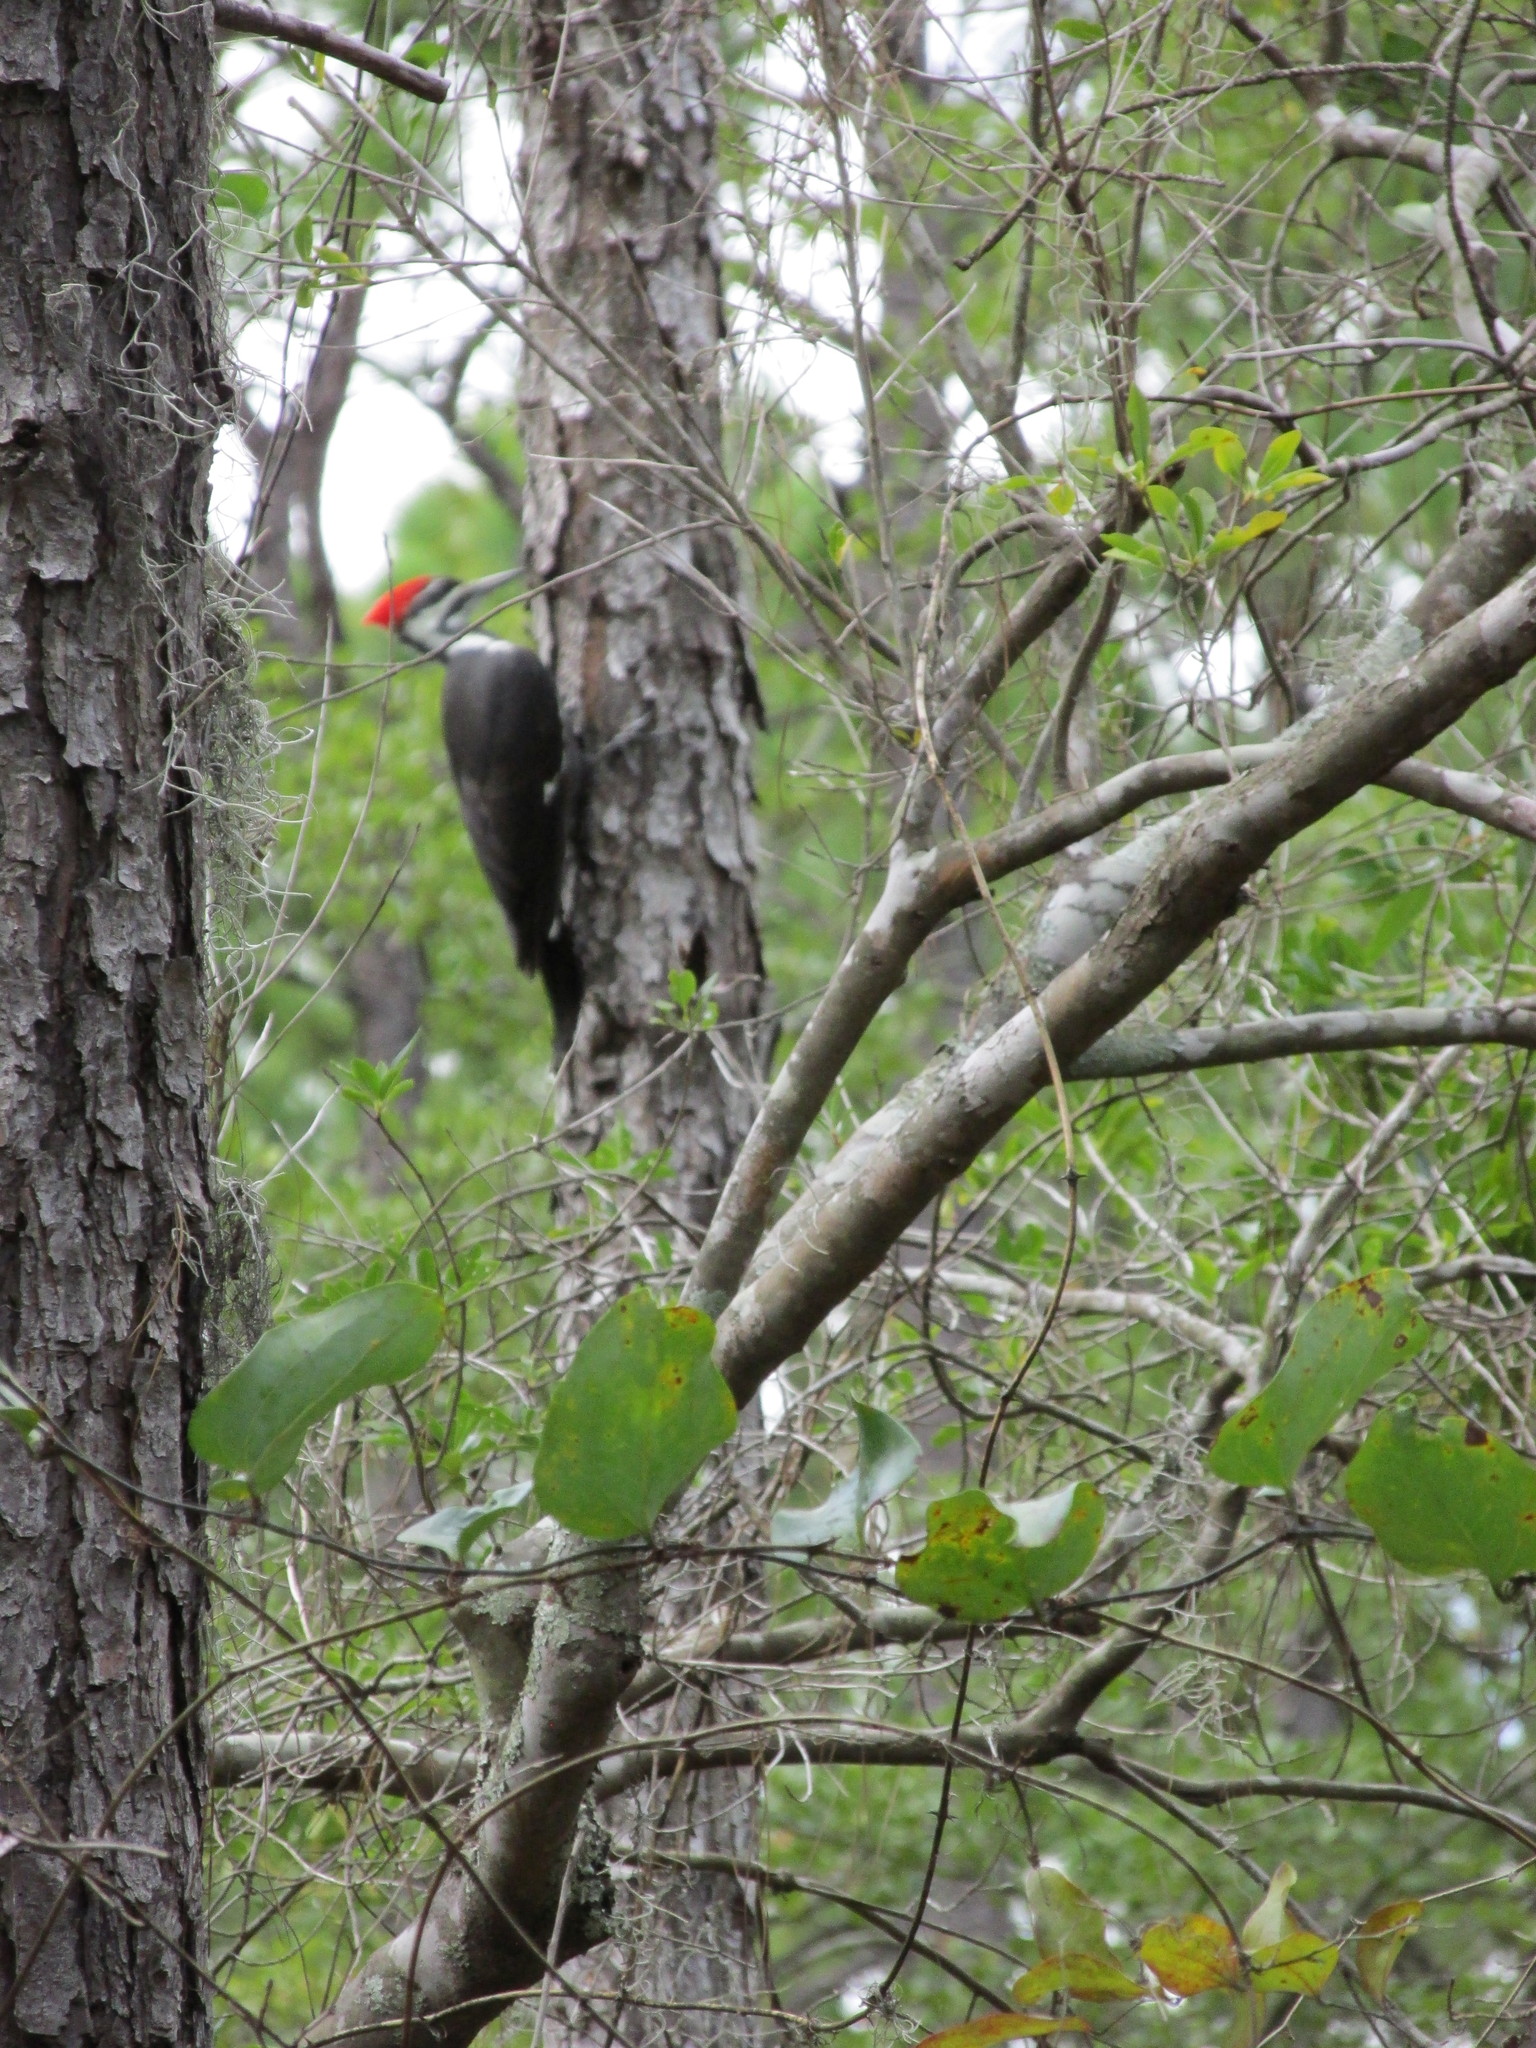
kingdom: Animalia
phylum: Chordata
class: Aves
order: Piciformes
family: Picidae
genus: Dryocopus
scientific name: Dryocopus pileatus
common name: Pileated woodpecker
